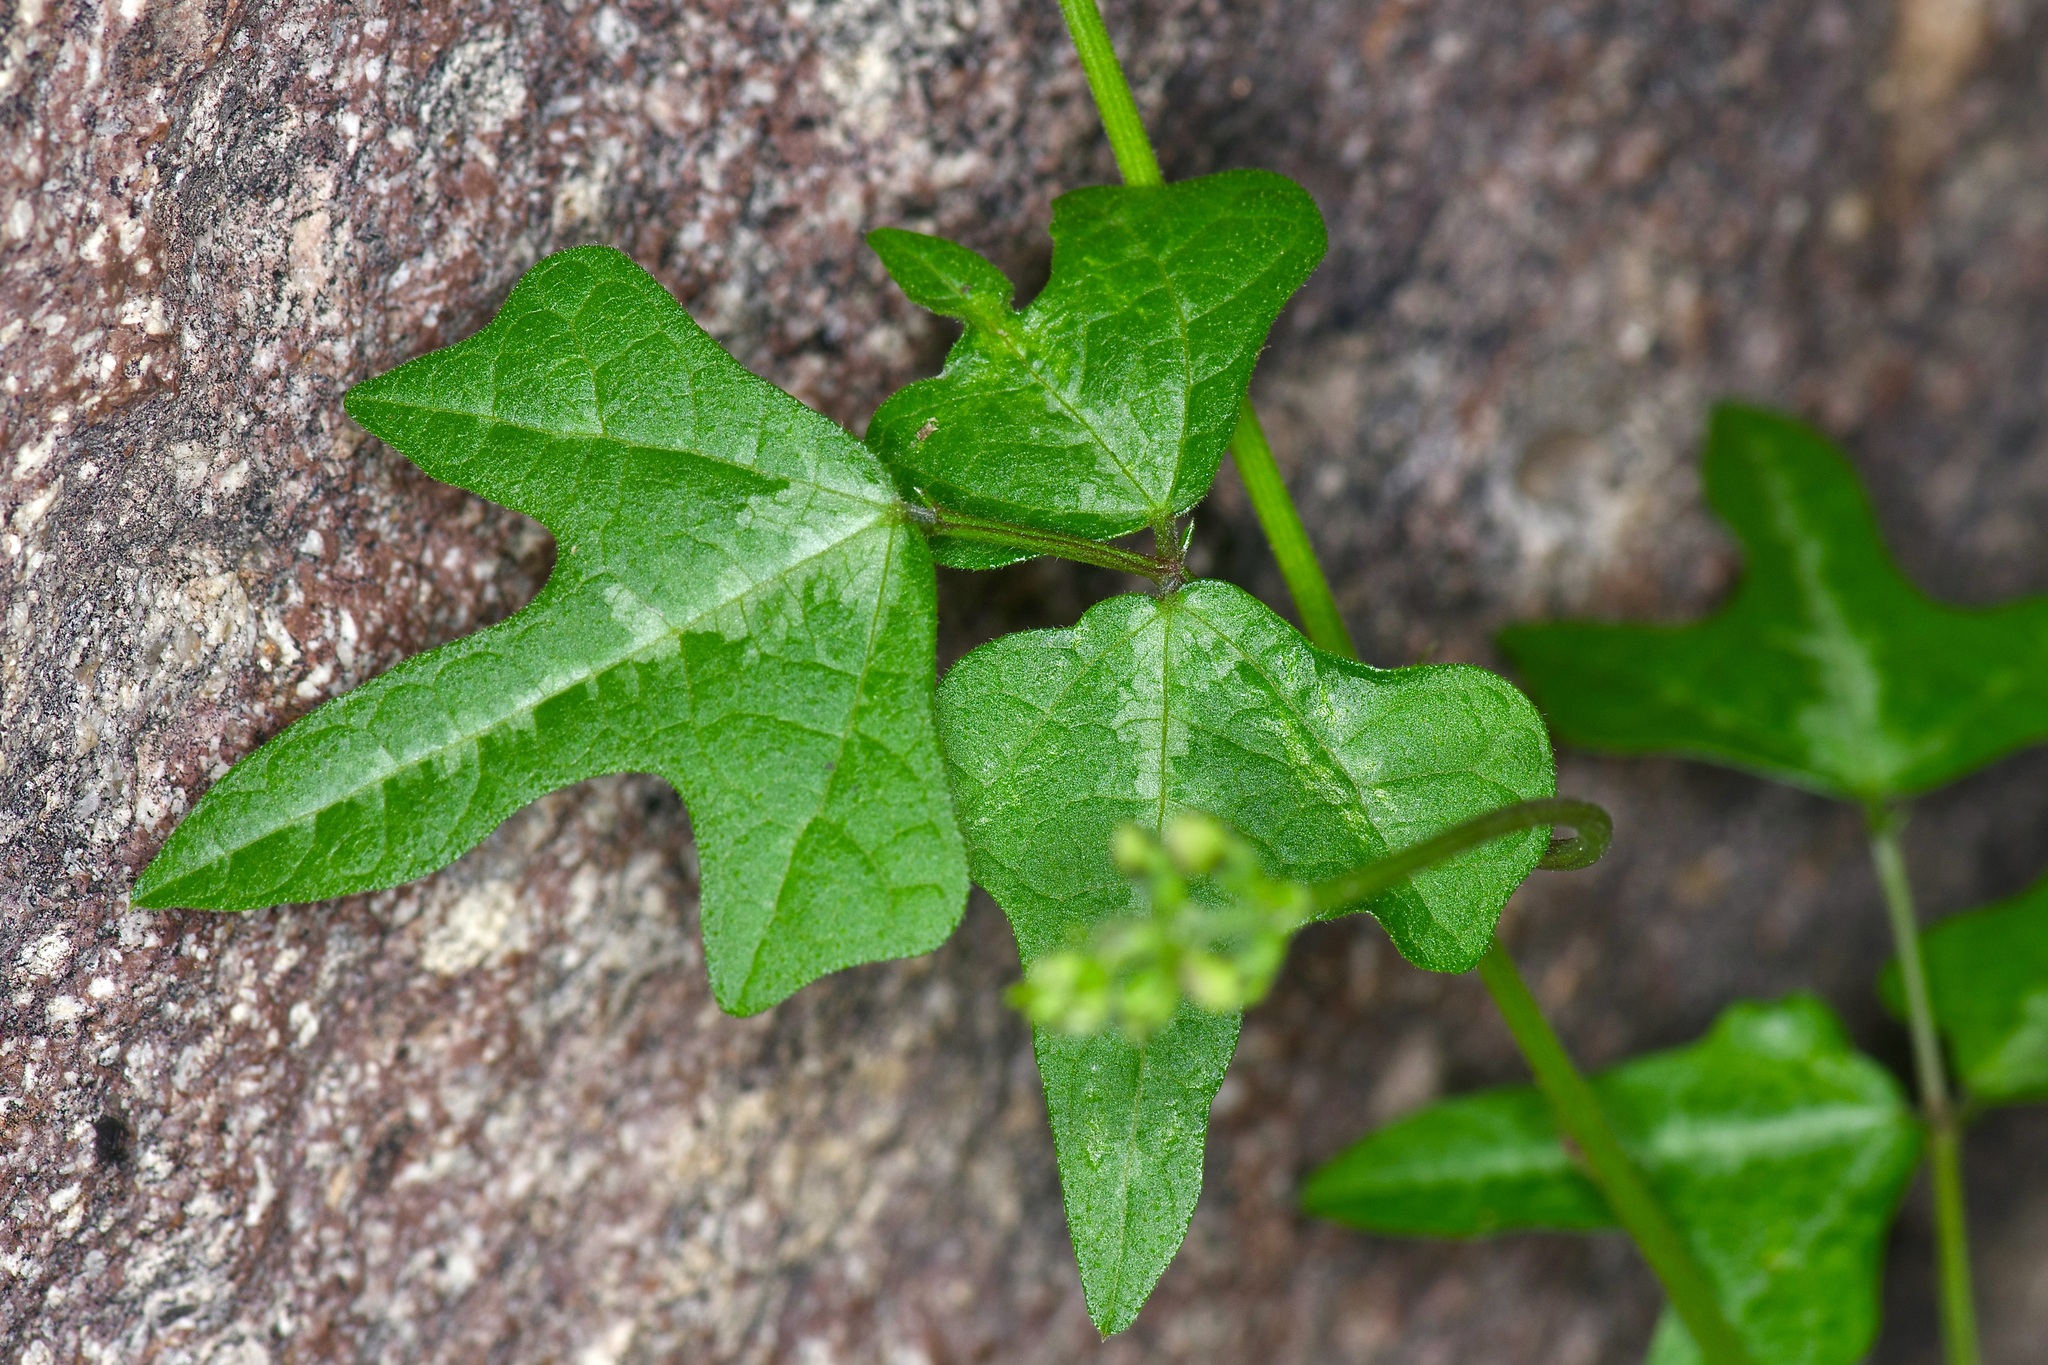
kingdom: Plantae
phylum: Tracheophyta
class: Magnoliopsida
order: Fabales
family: Fabaceae
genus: Phaseolus
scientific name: Phaseolus pedicellatus
